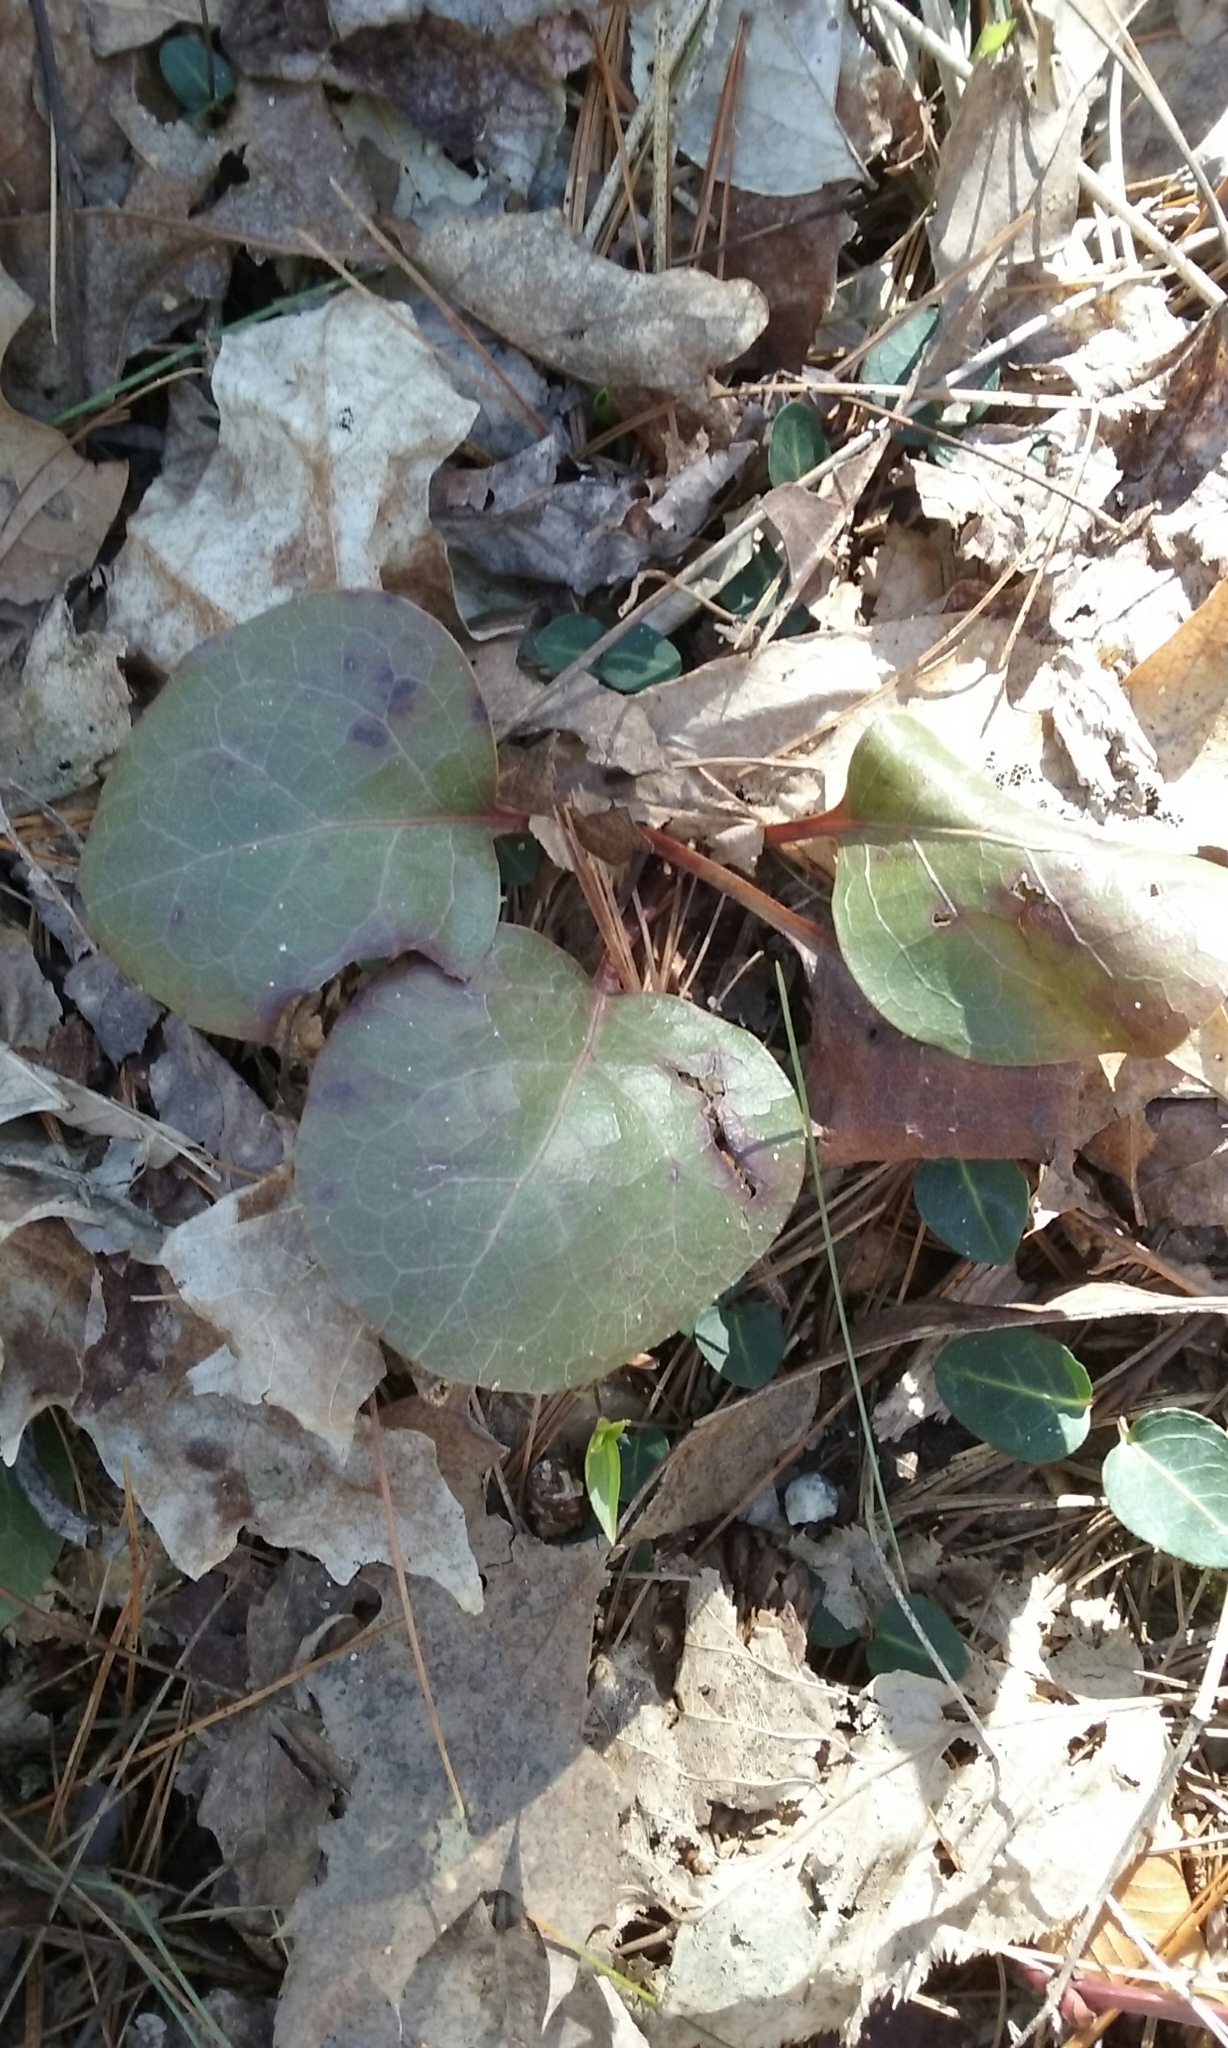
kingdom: Plantae
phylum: Tracheophyta
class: Magnoliopsida
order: Ericales
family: Ericaceae
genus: Pyrola
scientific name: Pyrola
